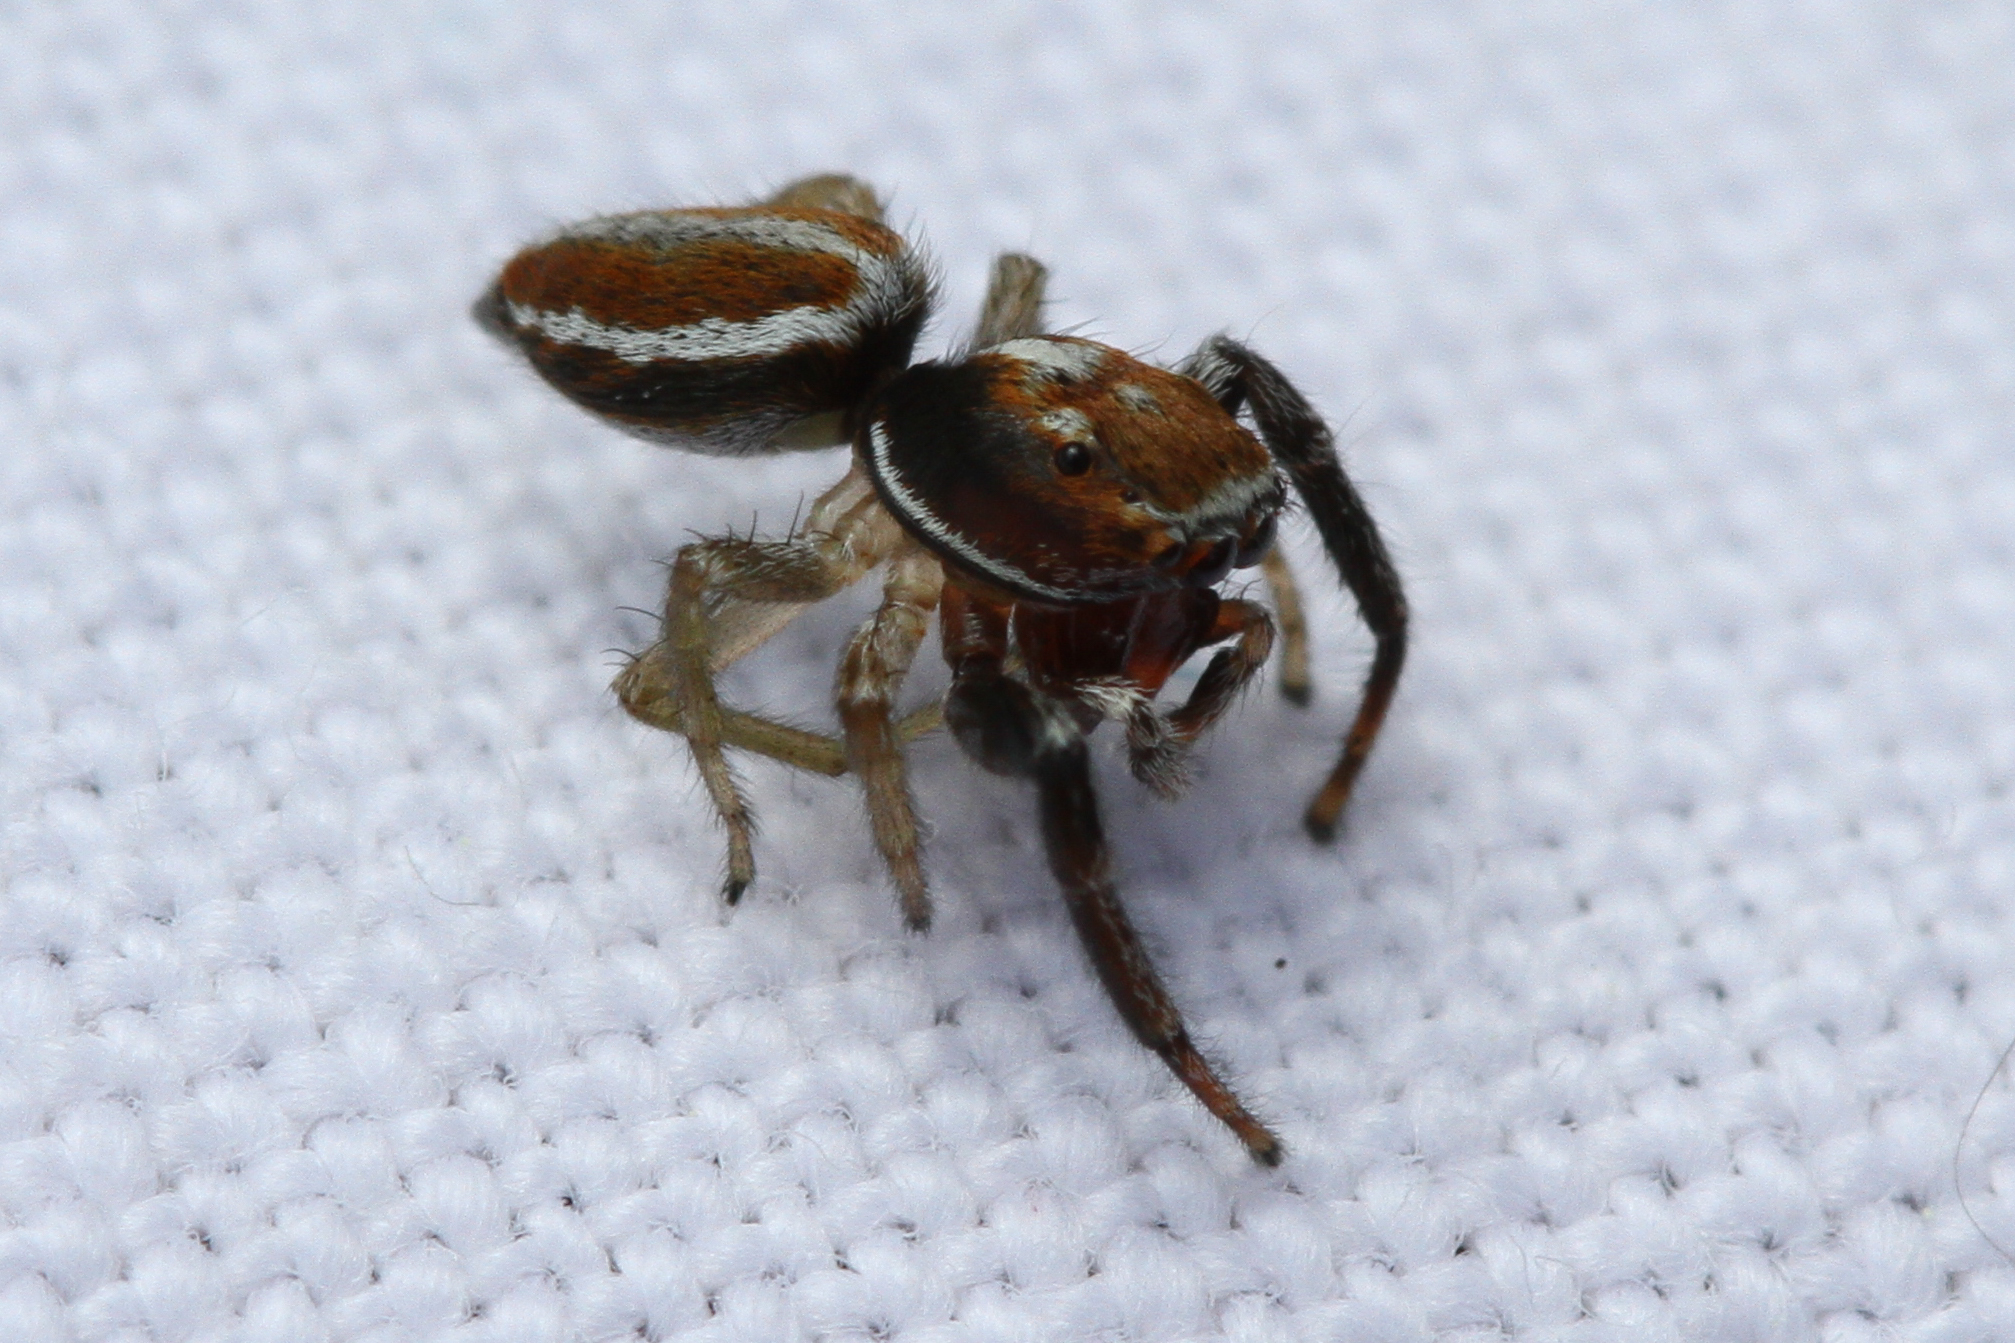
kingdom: Animalia
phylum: Arthropoda
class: Arachnida
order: Araneae
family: Salticidae
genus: Icius
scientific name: Icius hamatus
